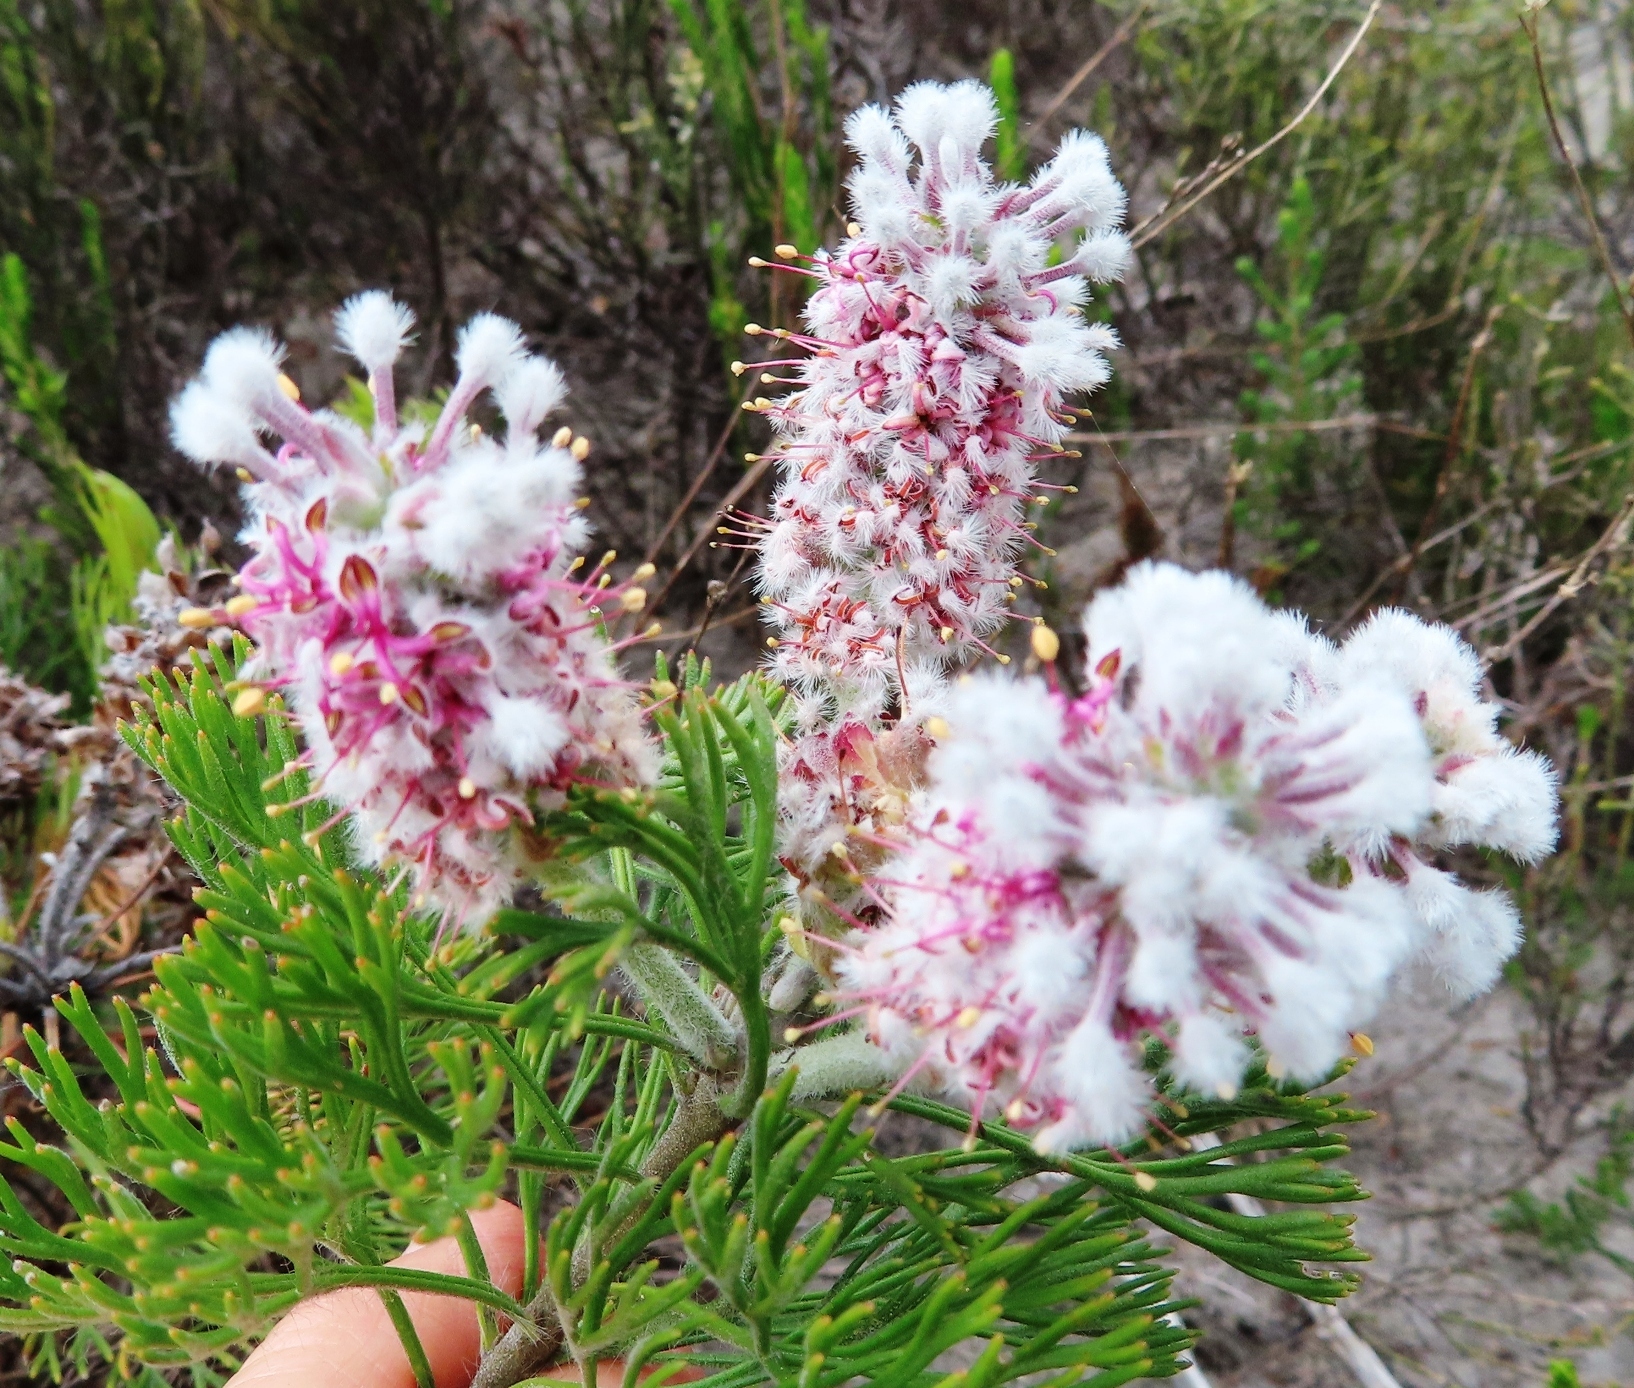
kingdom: Plantae
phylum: Tracheophyta
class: Magnoliopsida
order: Proteales
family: Proteaceae
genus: Paranomus
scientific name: Paranomus abrotanifolius
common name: Bredasdorp sceptre
